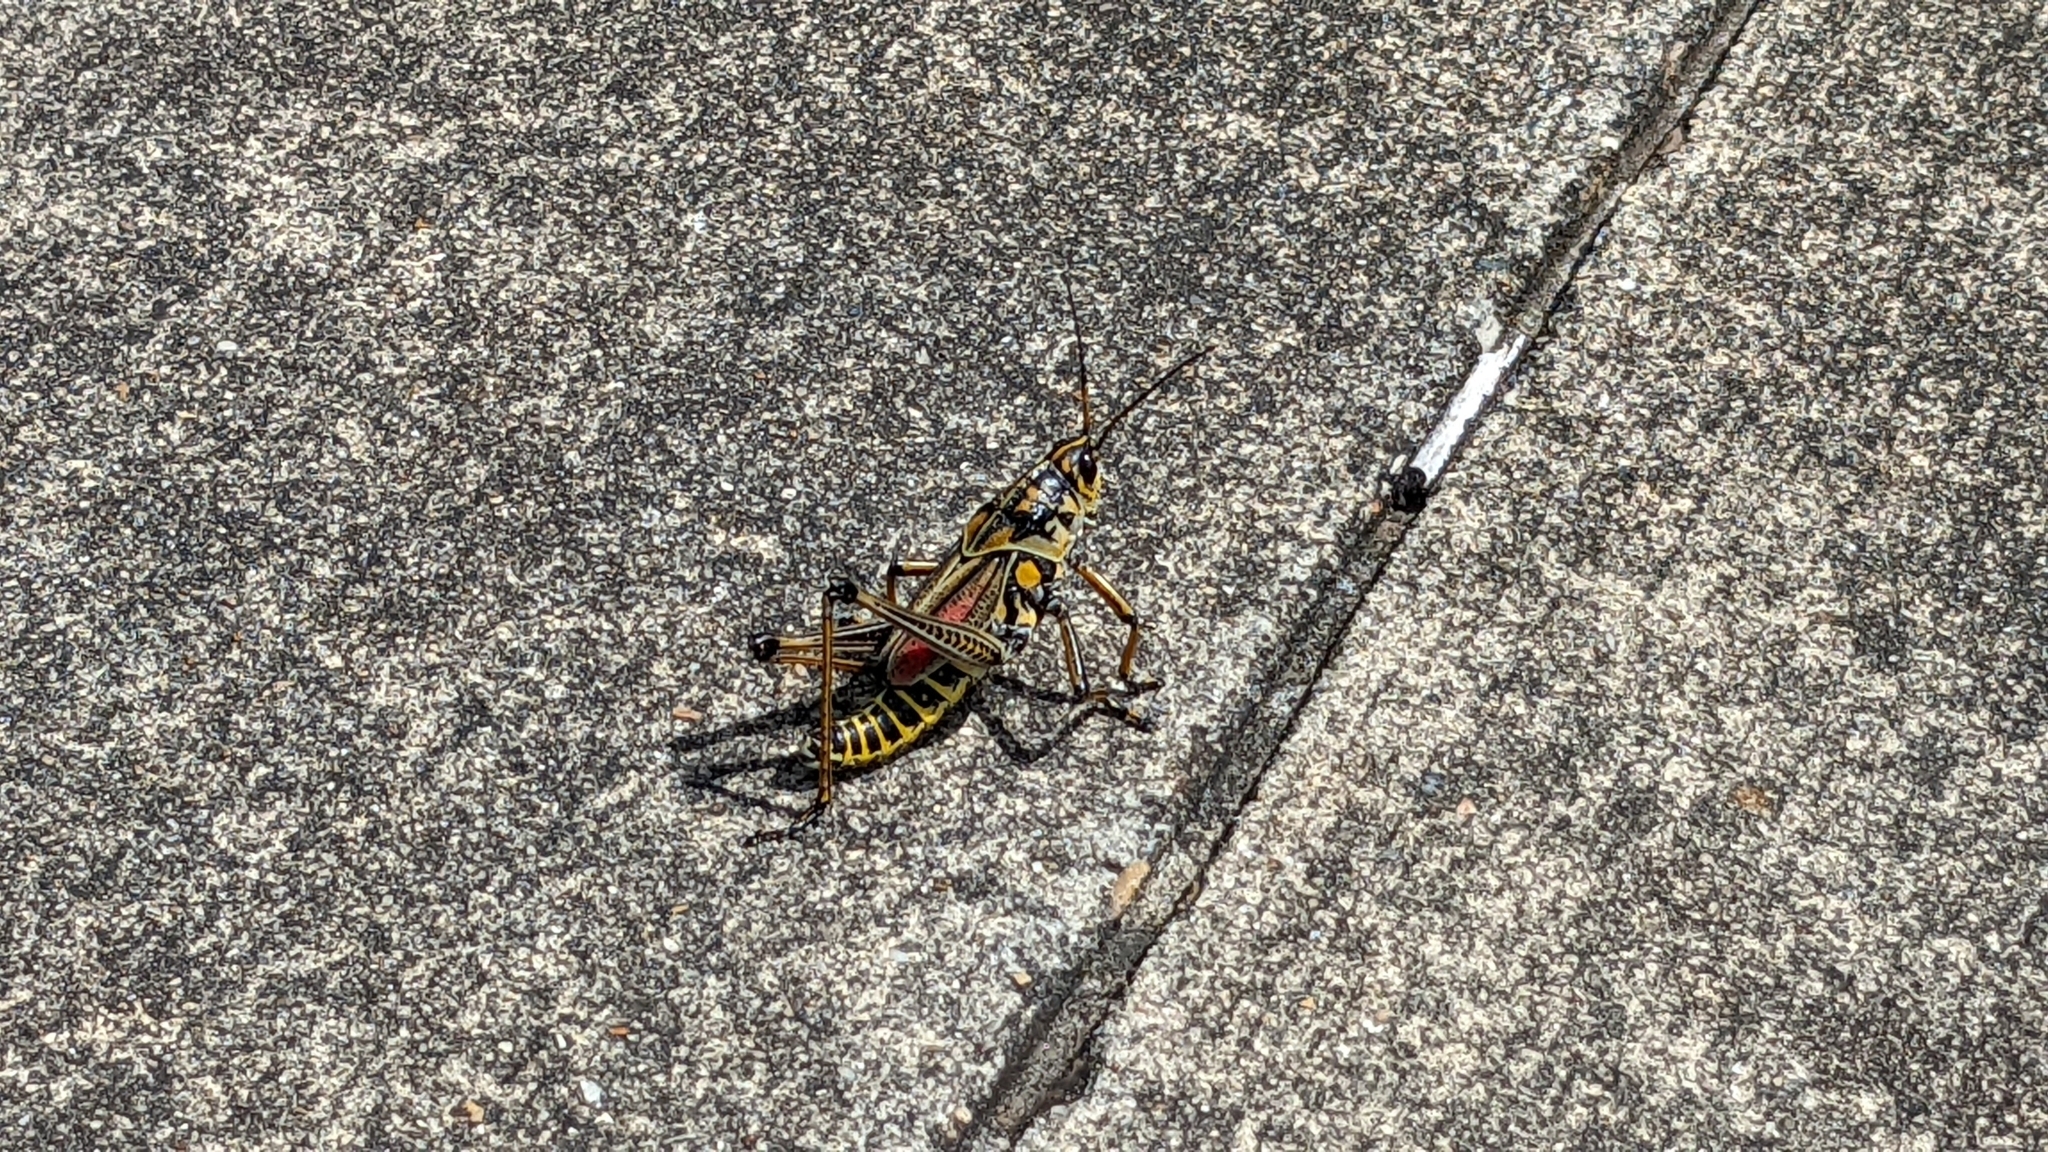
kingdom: Animalia
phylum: Arthropoda
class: Insecta
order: Orthoptera
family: Romaleidae
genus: Romalea
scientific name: Romalea microptera
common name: Eastern lubber grasshopper
